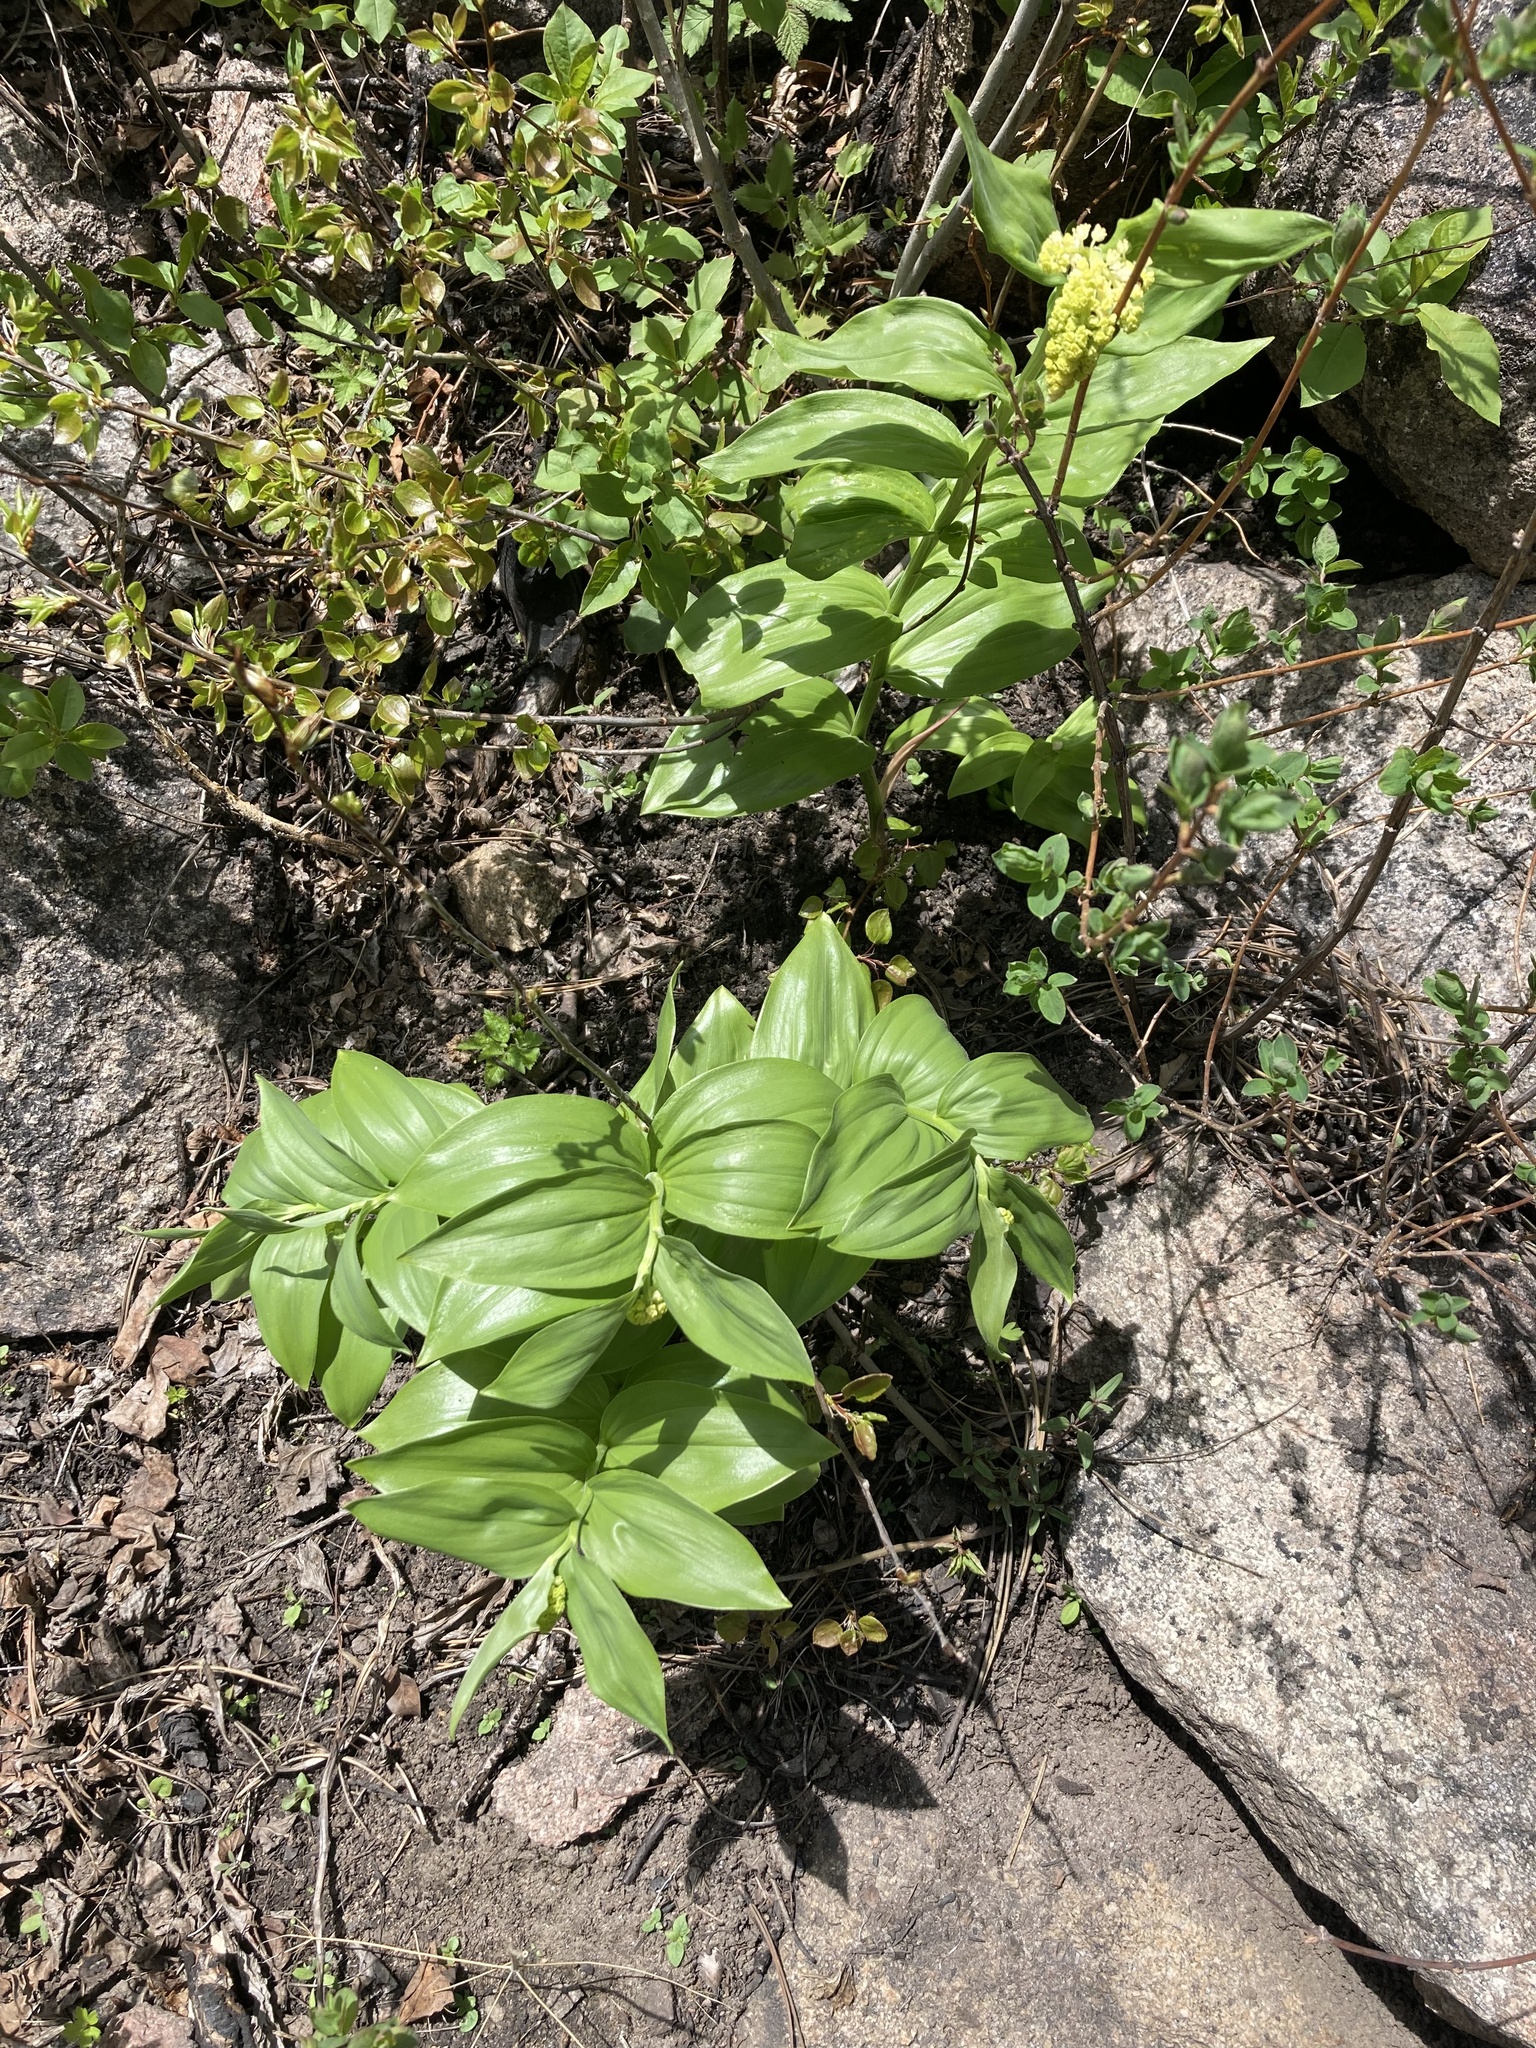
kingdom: Plantae
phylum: Tracheophyta
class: Liliopsida
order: Asparagales
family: Asparagaceae
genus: Maianthemum
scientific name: Maianthemum racemosum
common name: False spikenard
